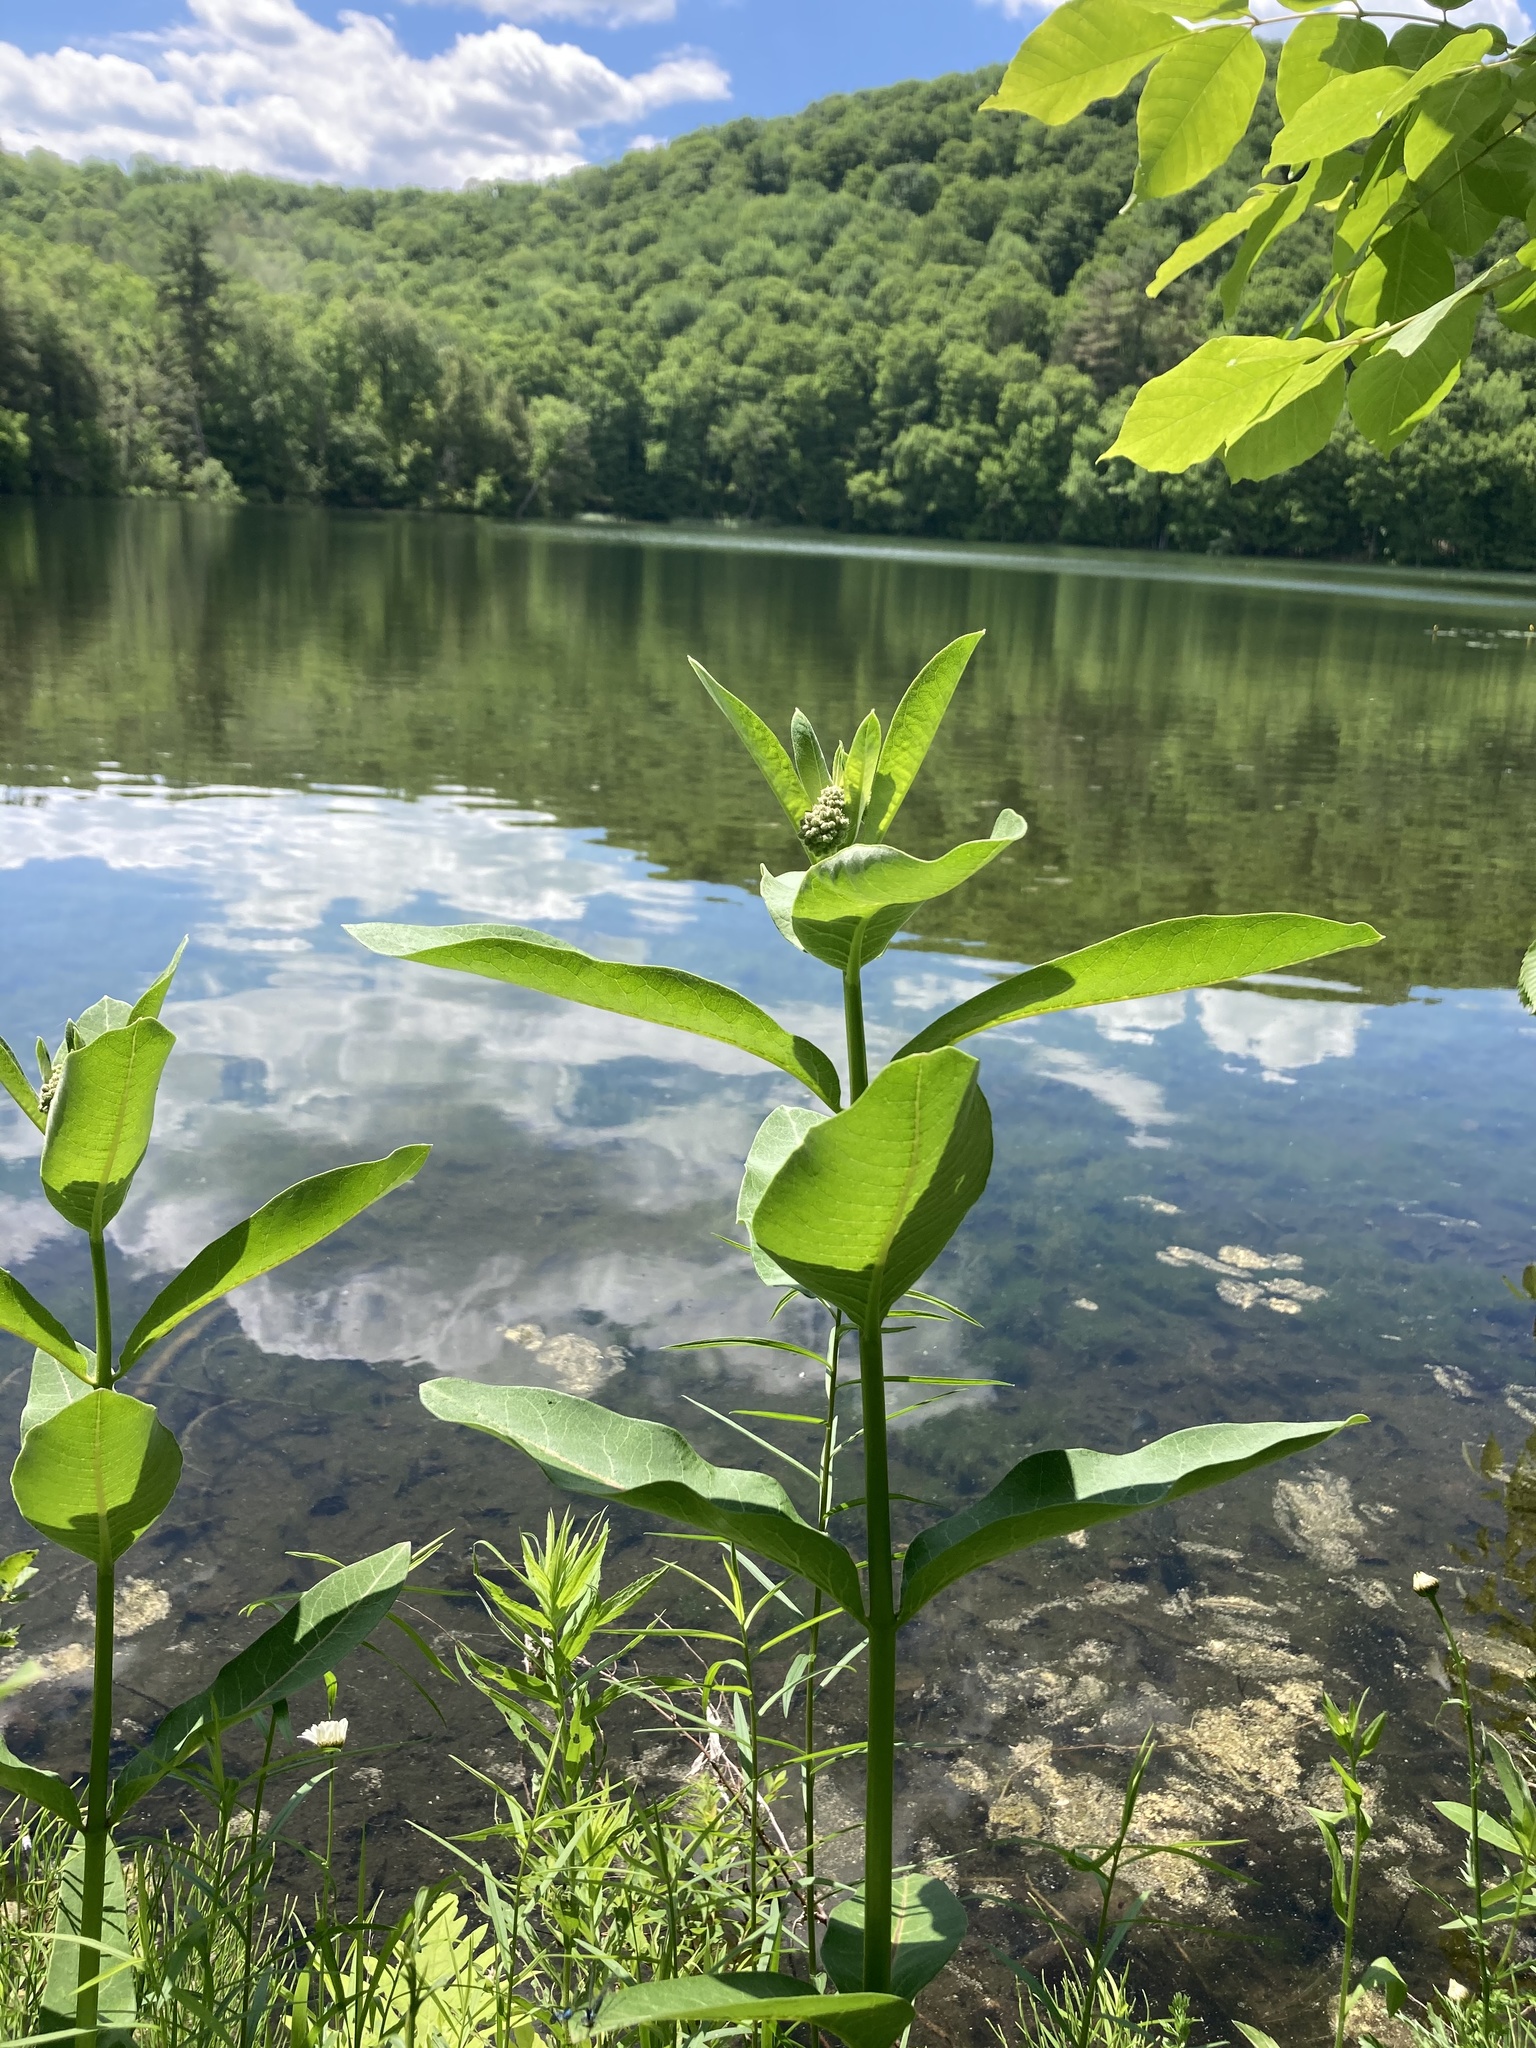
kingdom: Plantae
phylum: Tracheophyta
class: Magnoliopsida
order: Gentianales
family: Apocynaceae
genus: Asclepias
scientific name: Asclepias syriaca
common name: Common milkweed
